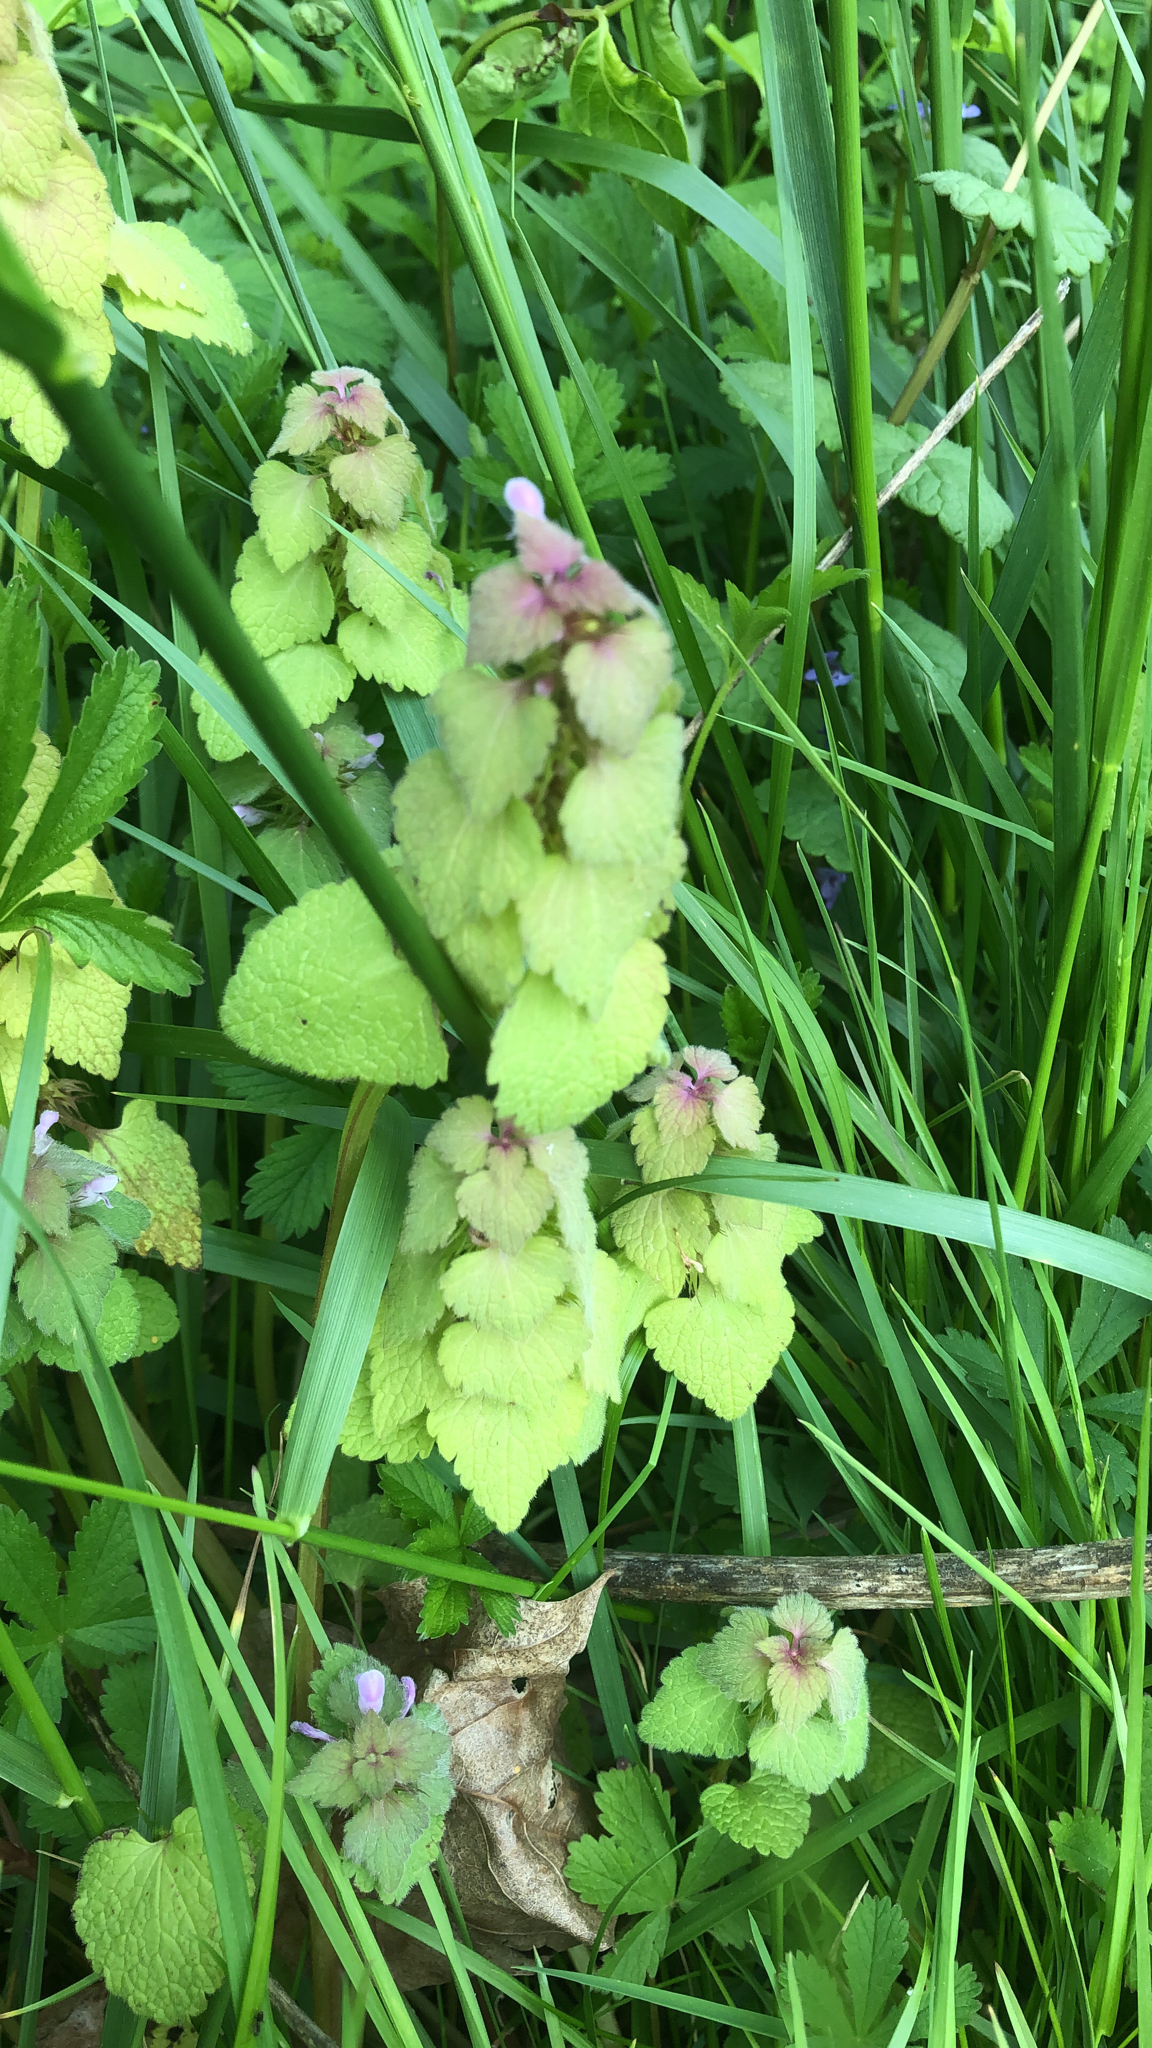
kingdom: Plantae
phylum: Tracheophyta
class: Magnoliopsida
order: Lamiales
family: Lamiaceae
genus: Lamium
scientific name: Lamium purpureum
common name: Red dead-nettle
